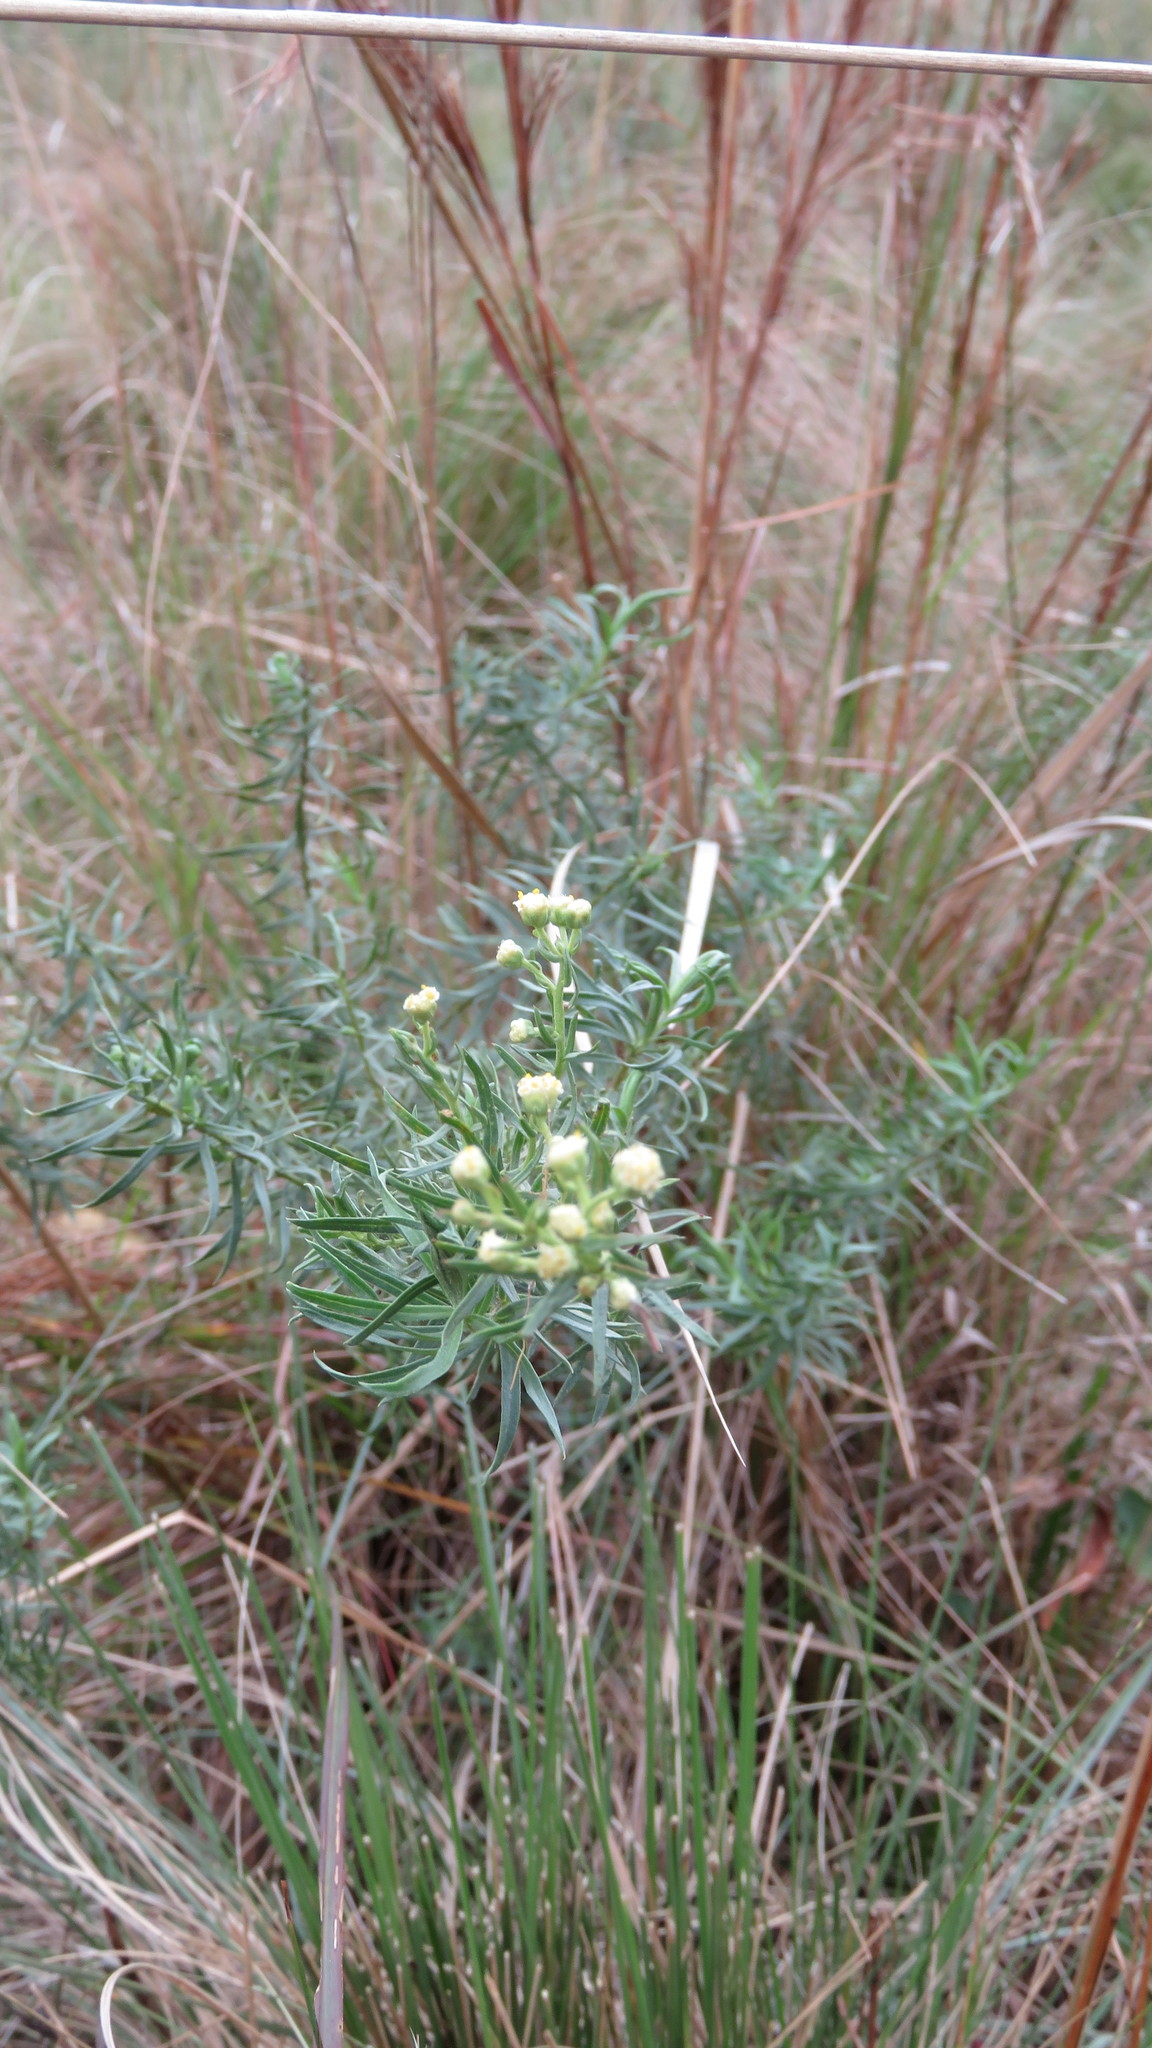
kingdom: Plantae
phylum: Tracheophyta
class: Magnoliopsida
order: Asterales
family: Asteraceae
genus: Baccharis
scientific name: Baccharis frenguellii
